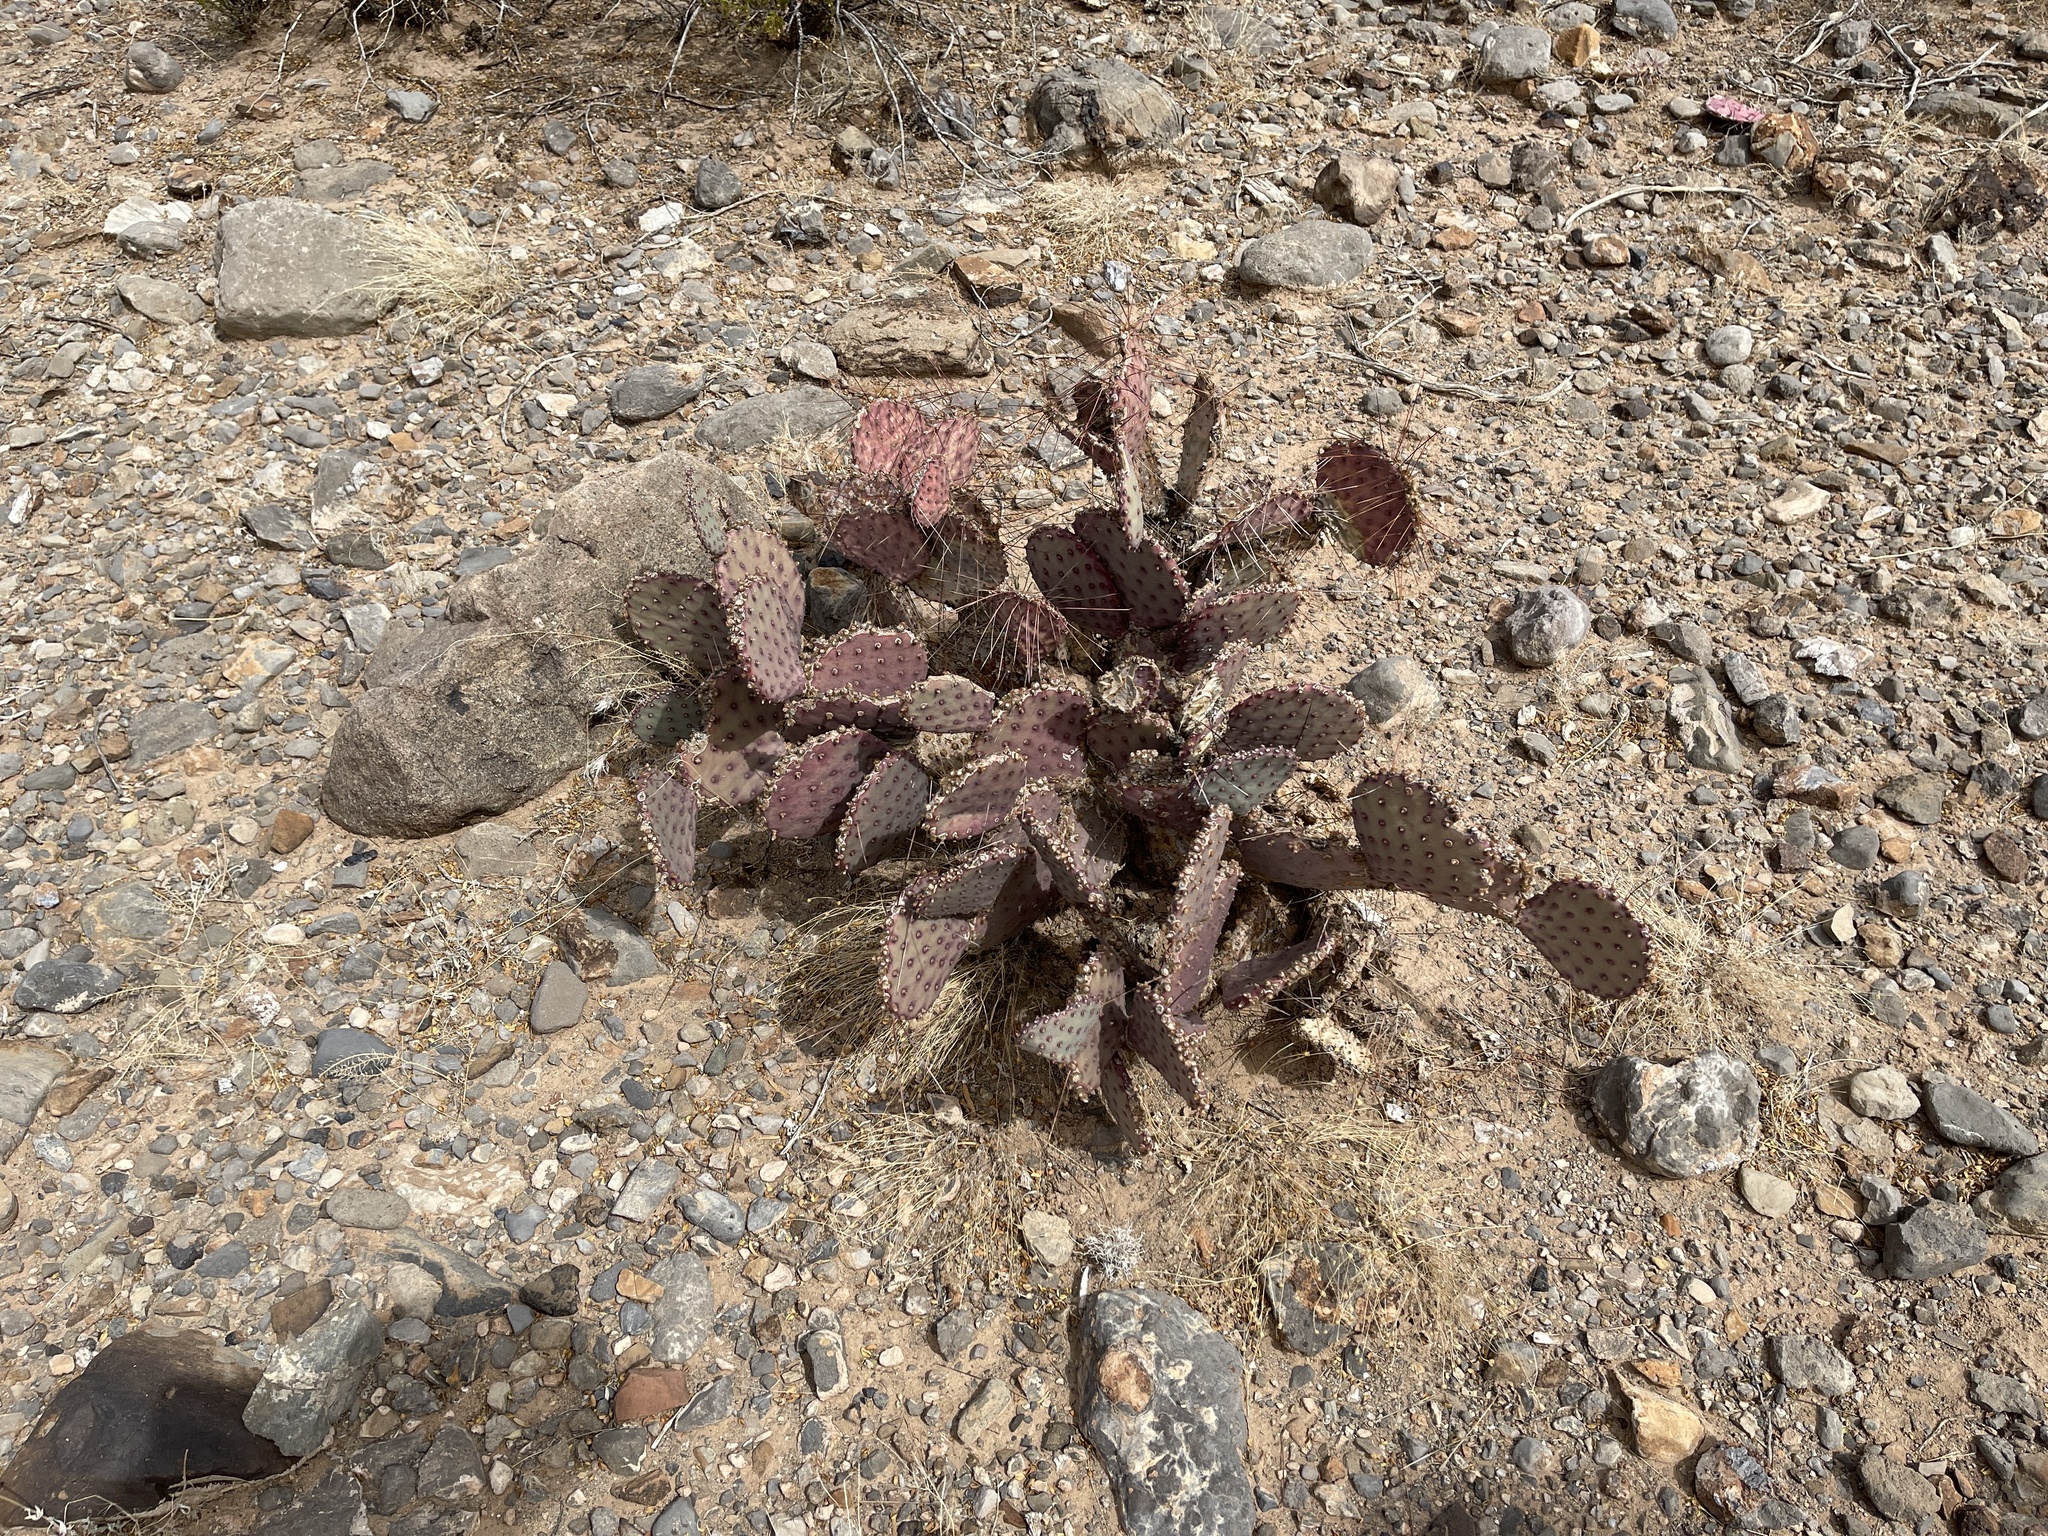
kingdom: Plantae
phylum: Tracheophyta
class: Magnoliopsida
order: Caryophyllales
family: Cactaceae
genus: Opuntia
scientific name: Opuntia macrocentra
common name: Purple prickly-pear
